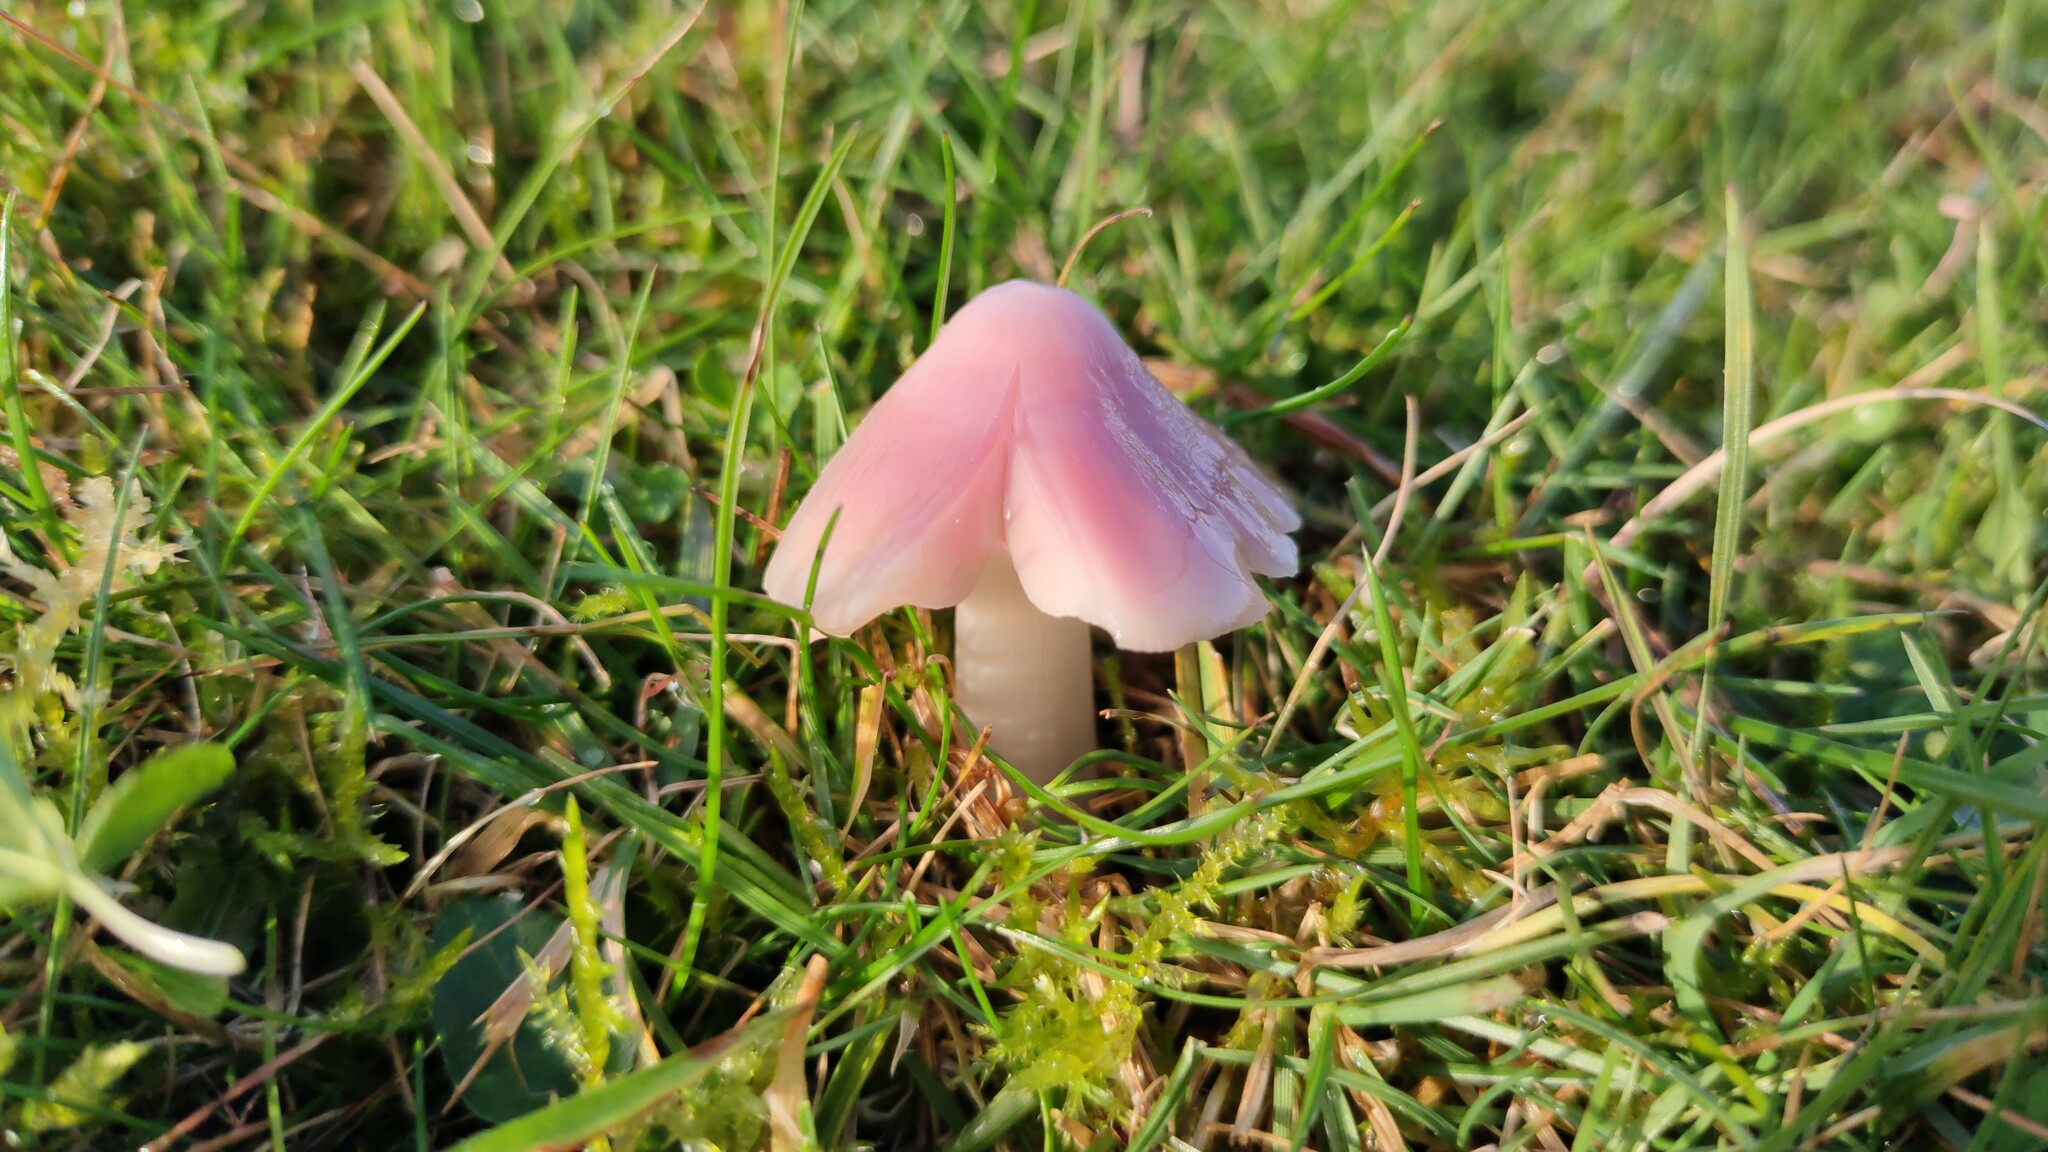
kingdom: Fungi
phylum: Basidiomycota
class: Agaricomycetes
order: Agaricales
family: Hygrophoraceae
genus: Porpolomopsis
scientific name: Porpolomopsis calyptriformis
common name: Pink waxcap
